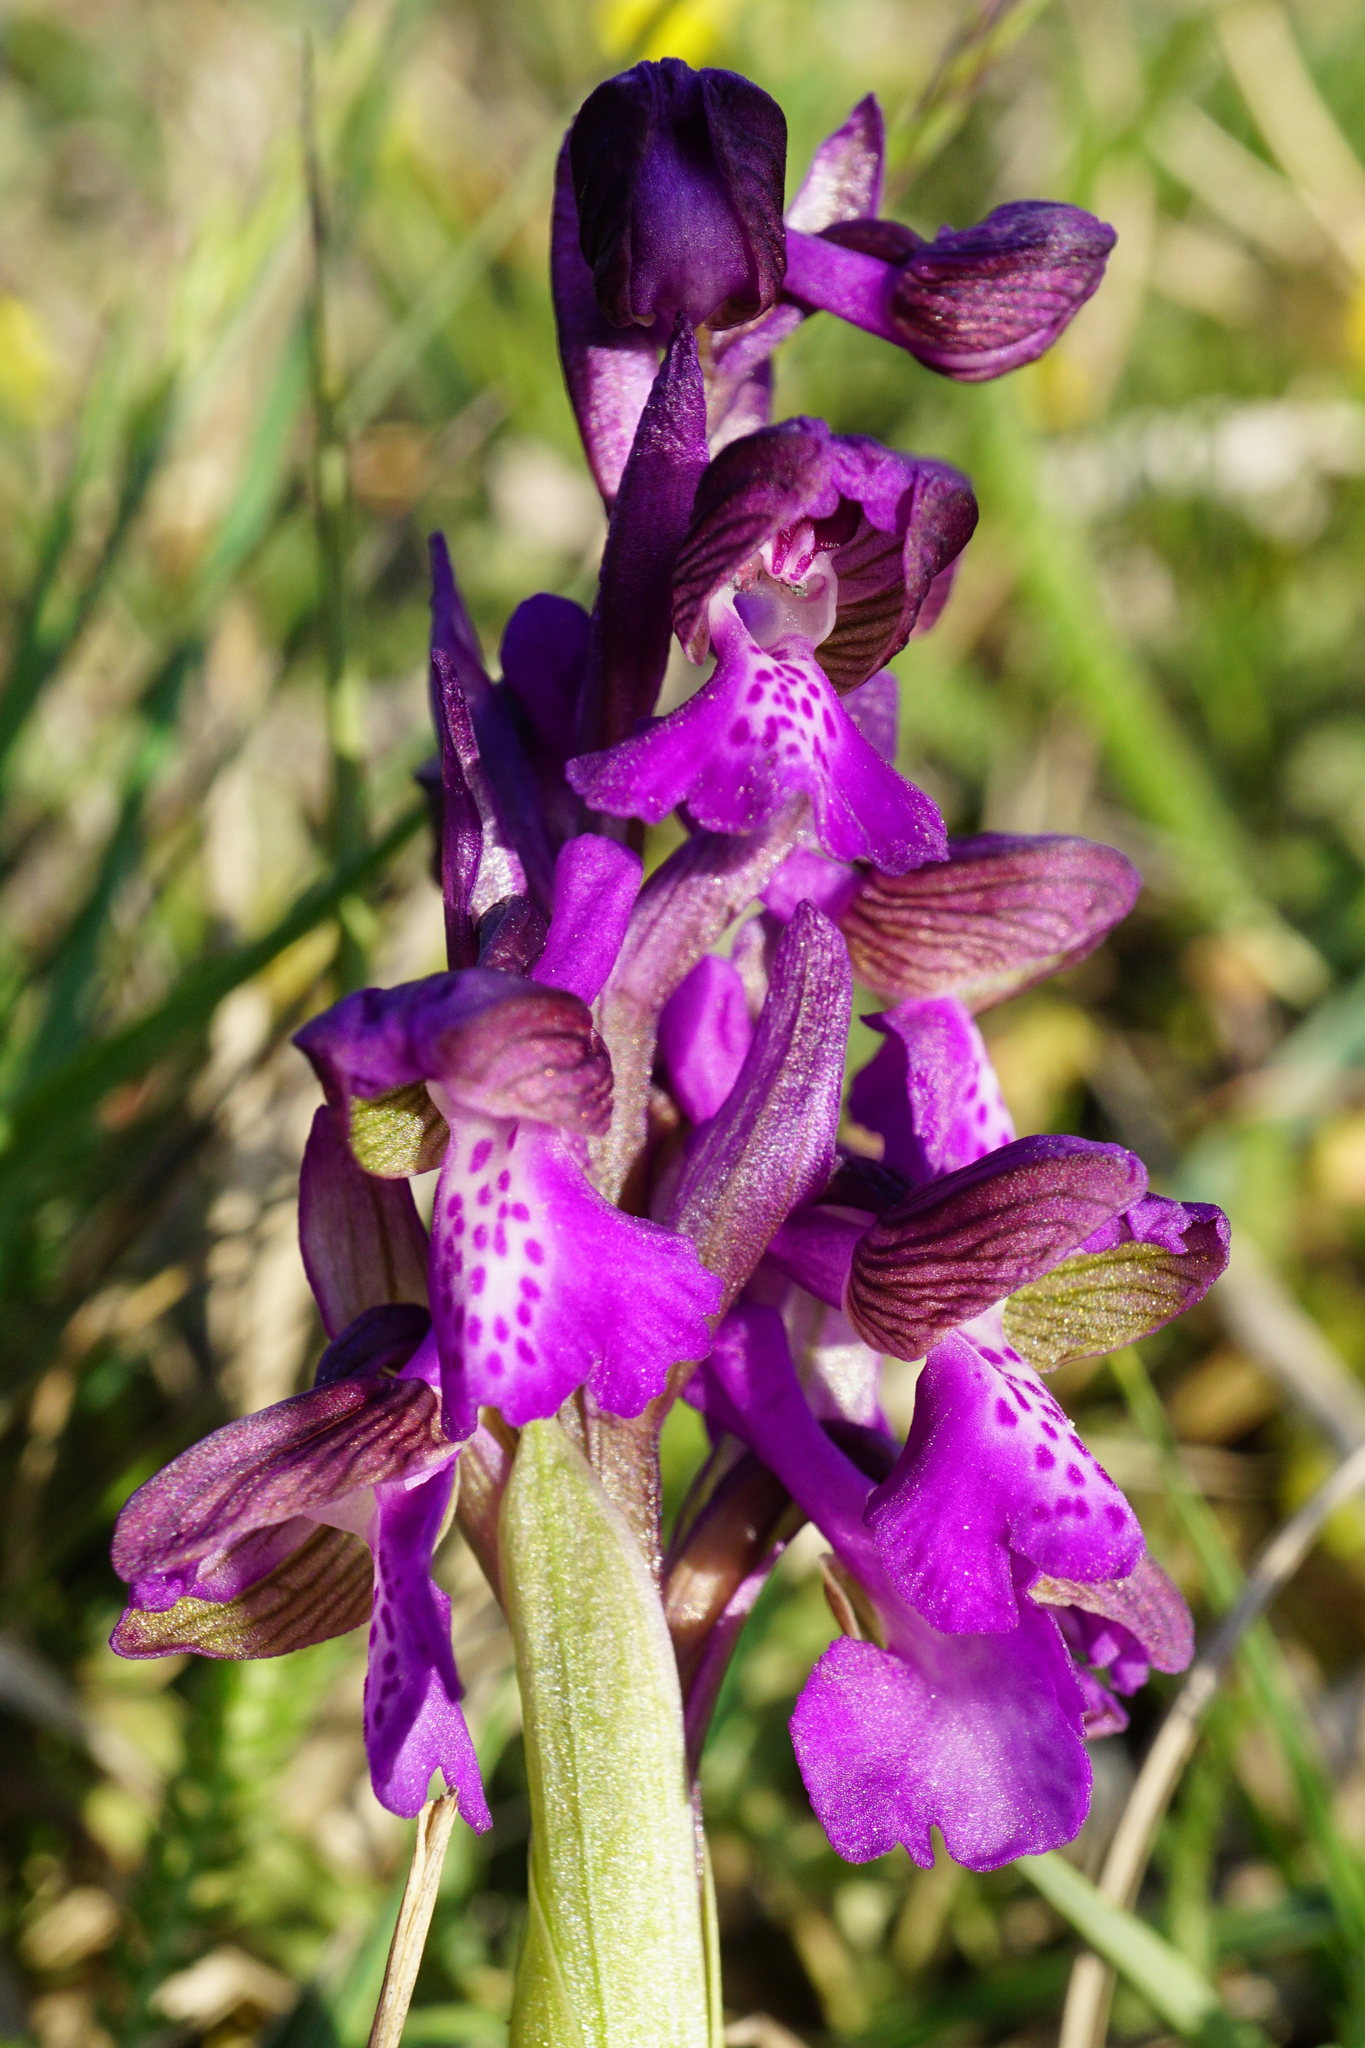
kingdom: Plantae
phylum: Tracheophyta
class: Liliopsida
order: Asparagales
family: Orchidaceae
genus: Anacamptis
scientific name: Anacamptis morio
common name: Green-winged orchid
